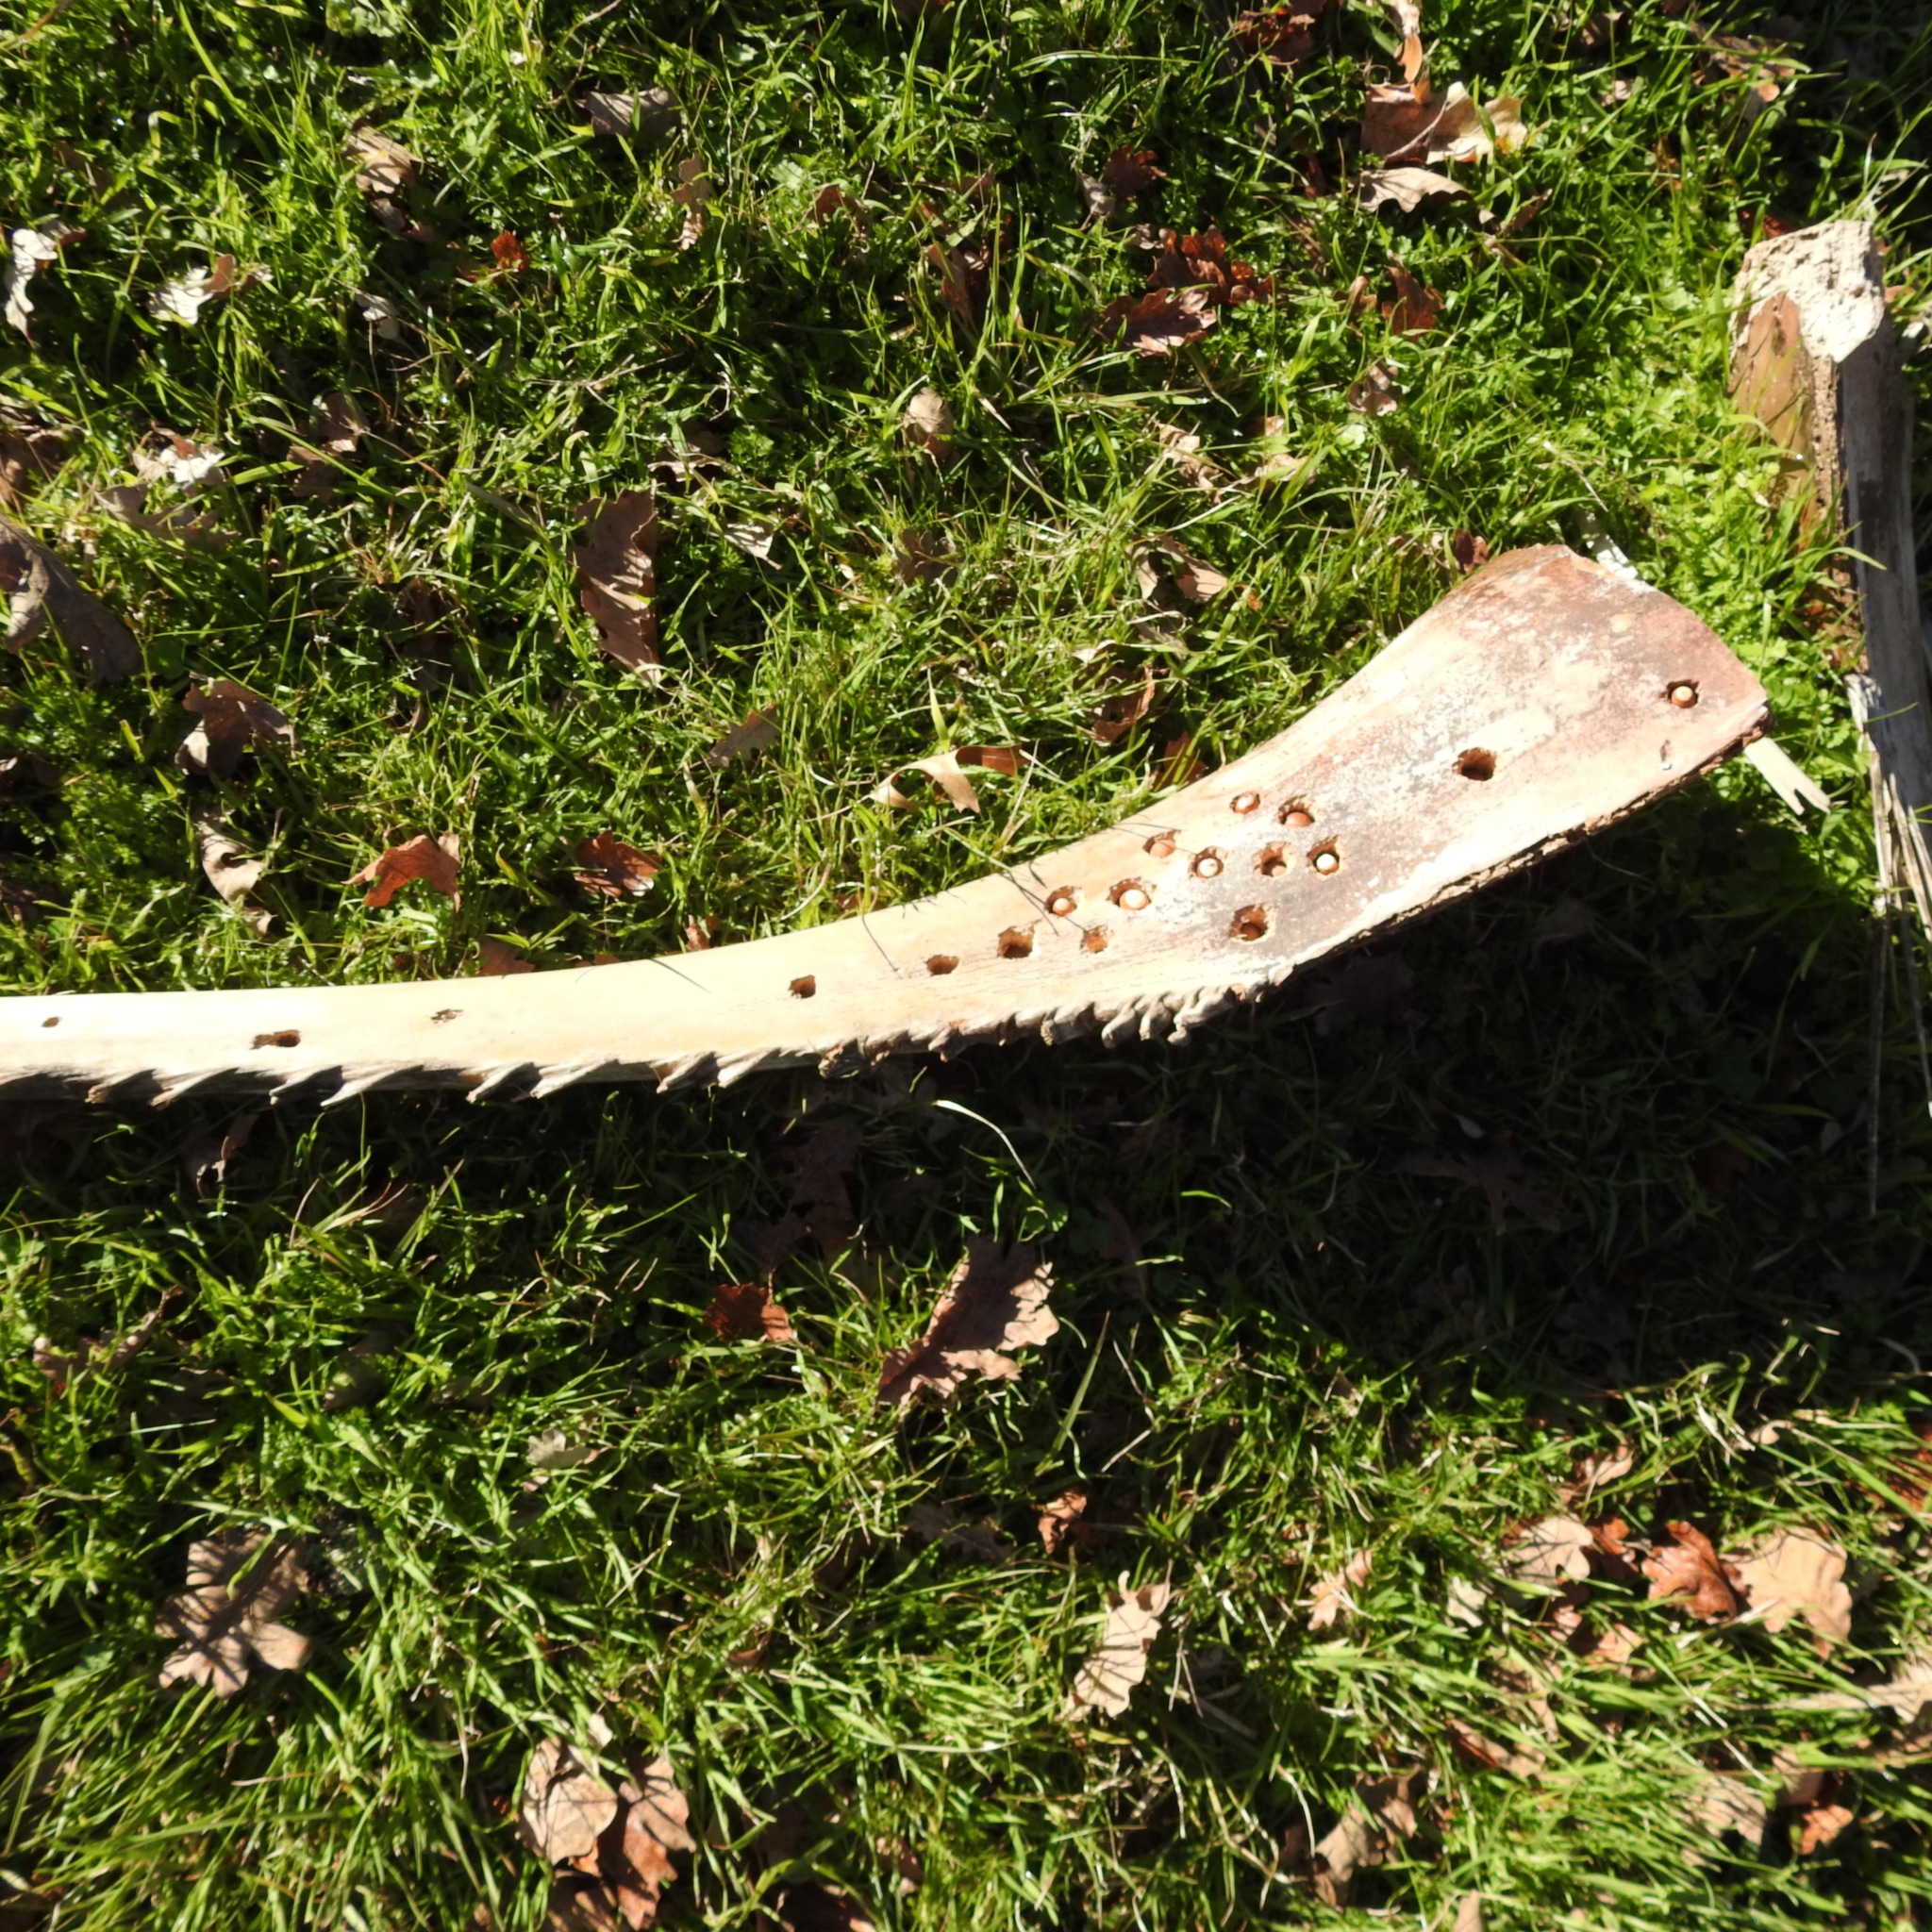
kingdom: Plantae
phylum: Tracheophyta
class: Liliopsida
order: Arecales
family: Arecaceae
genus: Phoenix
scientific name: Phoenix canariensis
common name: Canary island date palm
